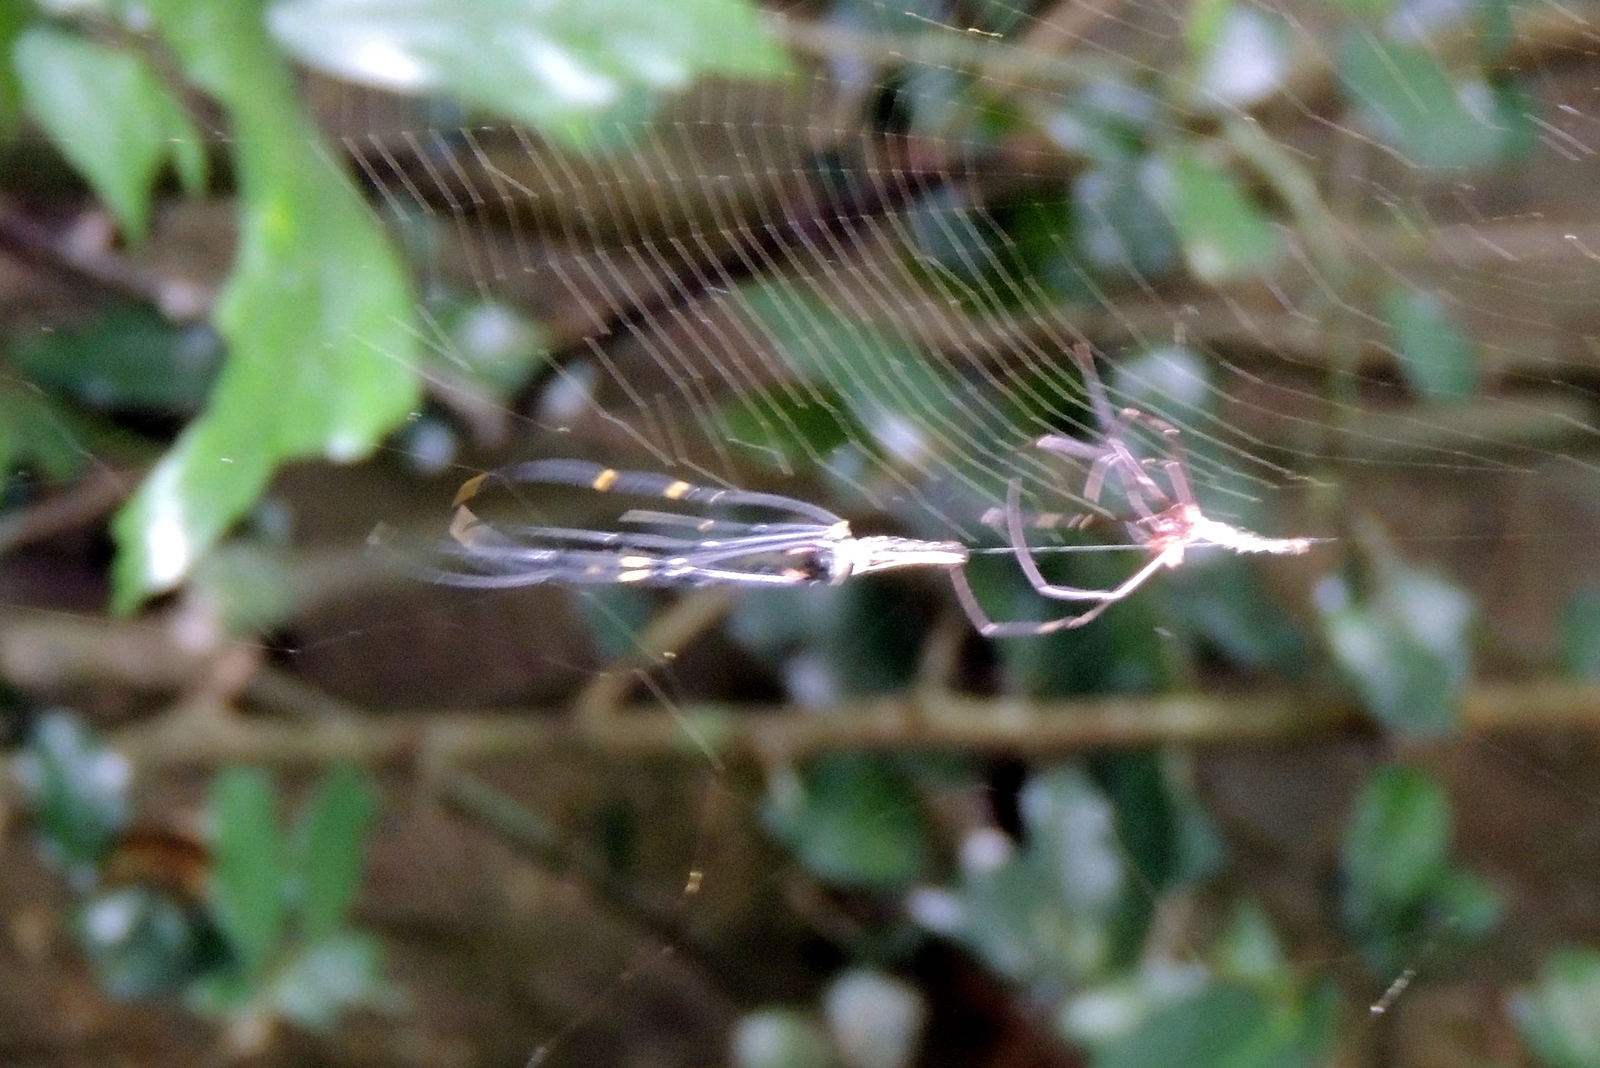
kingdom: Animalia
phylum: Arthropoda
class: Arachnida
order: Araneae
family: Araneidae
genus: Nephila
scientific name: Nephila pilipes
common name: Giant golden orb weaver
